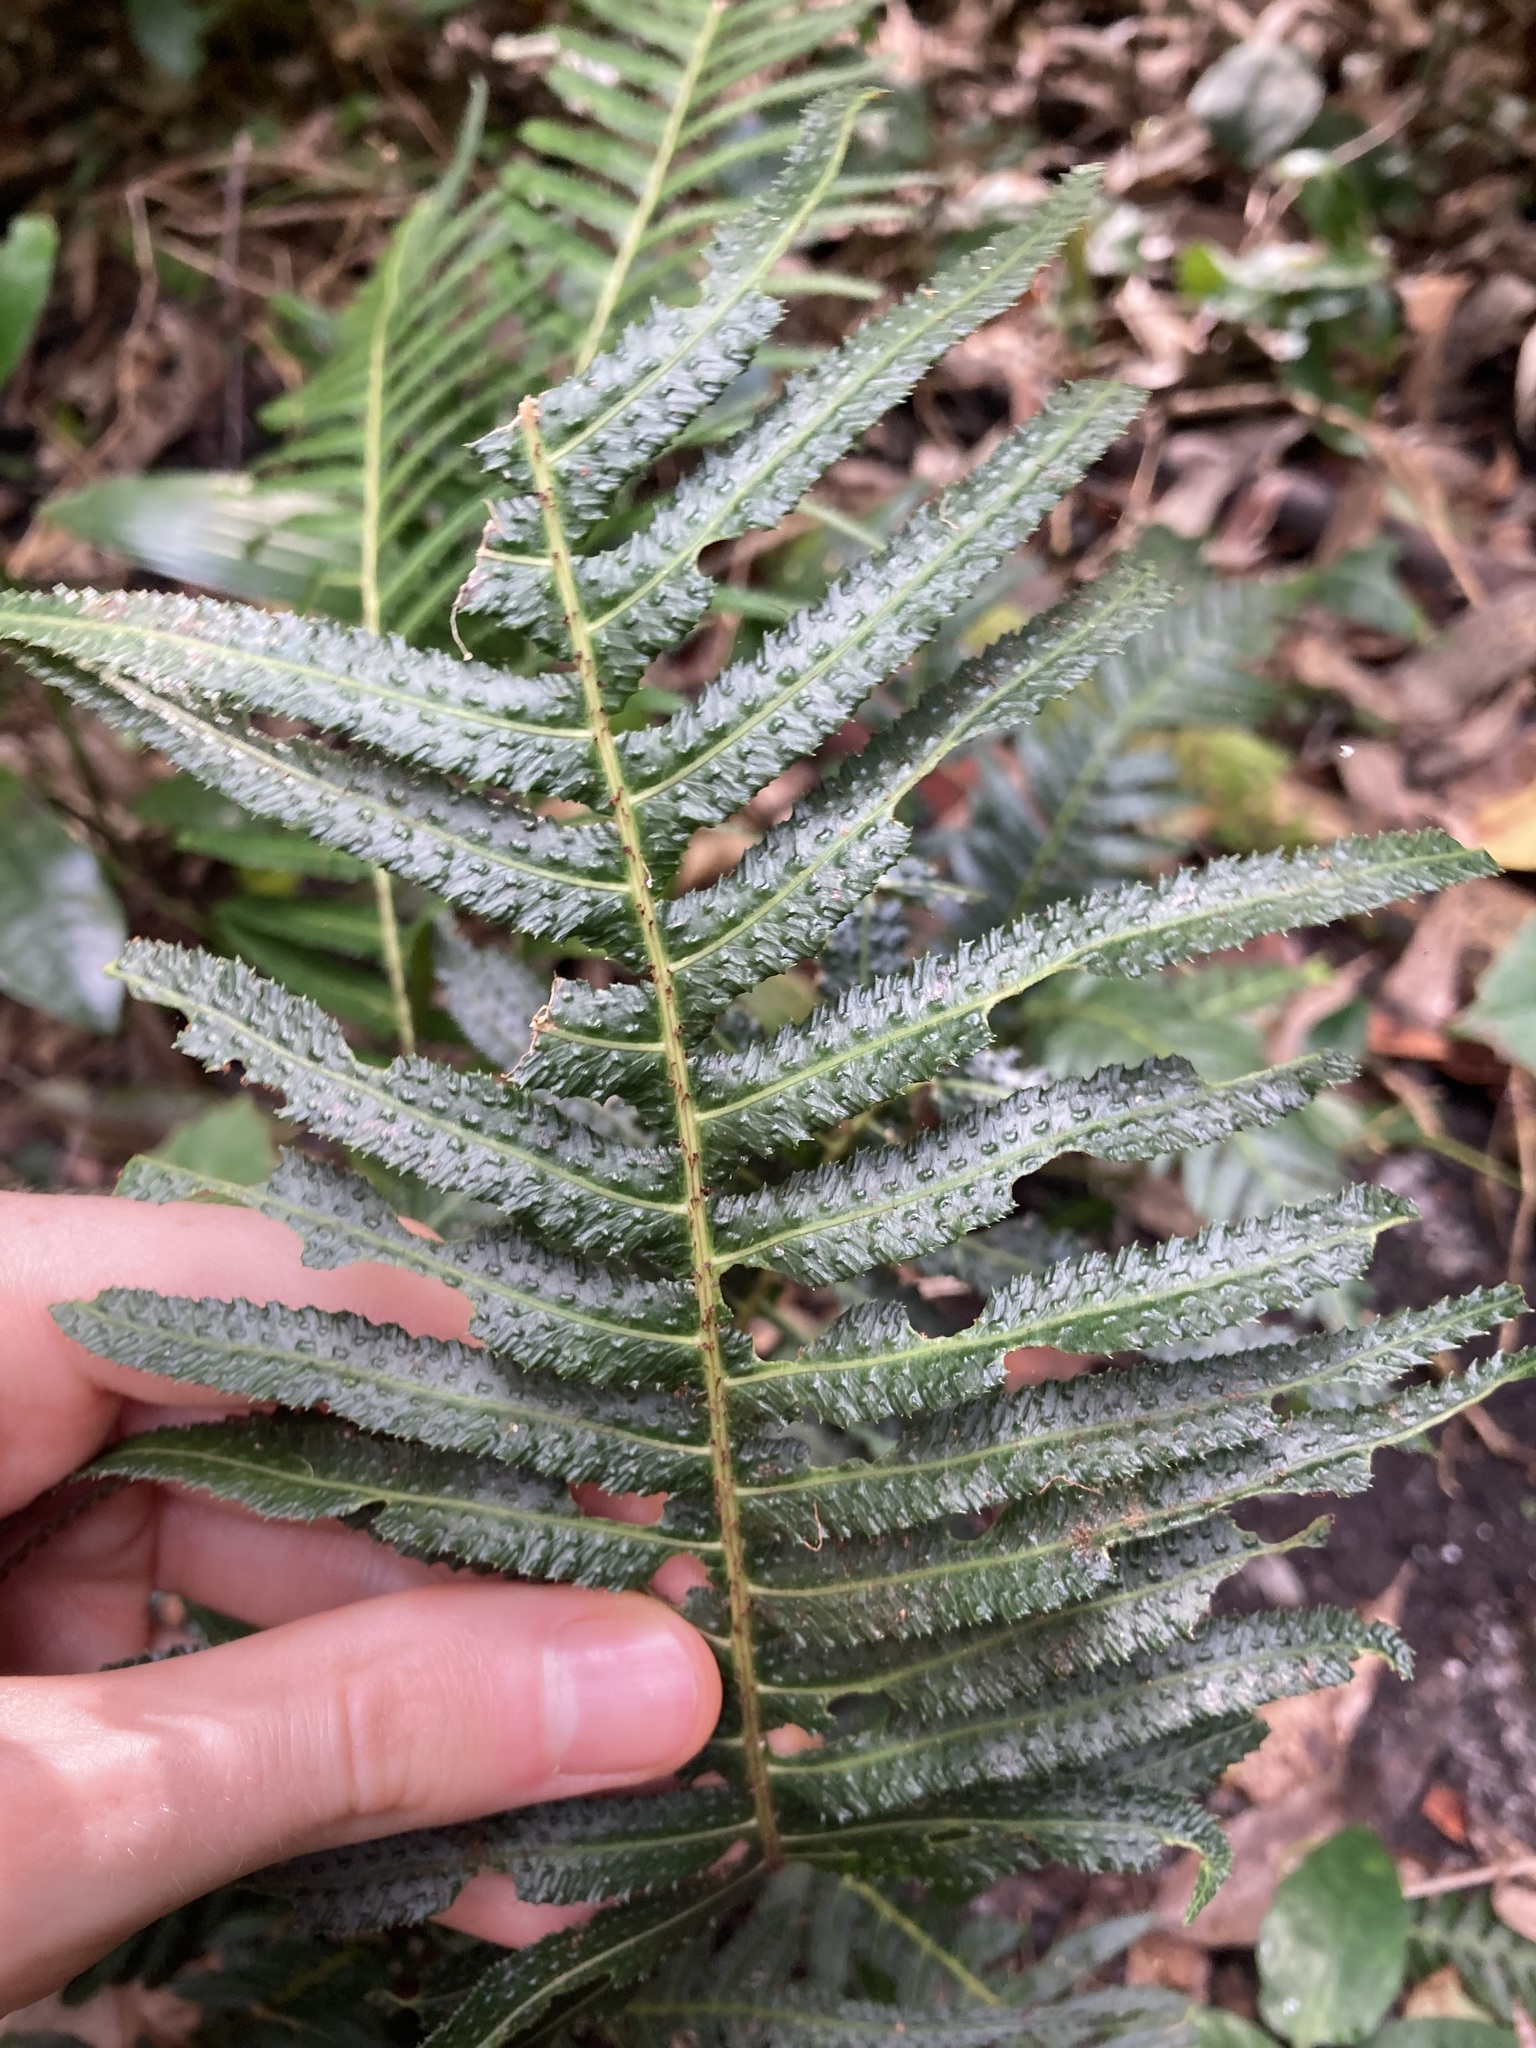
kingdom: Plantae
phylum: Tracheophyta
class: Polypodiopsida
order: Polypodiales
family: Blechnaceae
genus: Doodia
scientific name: Doodia aspera
